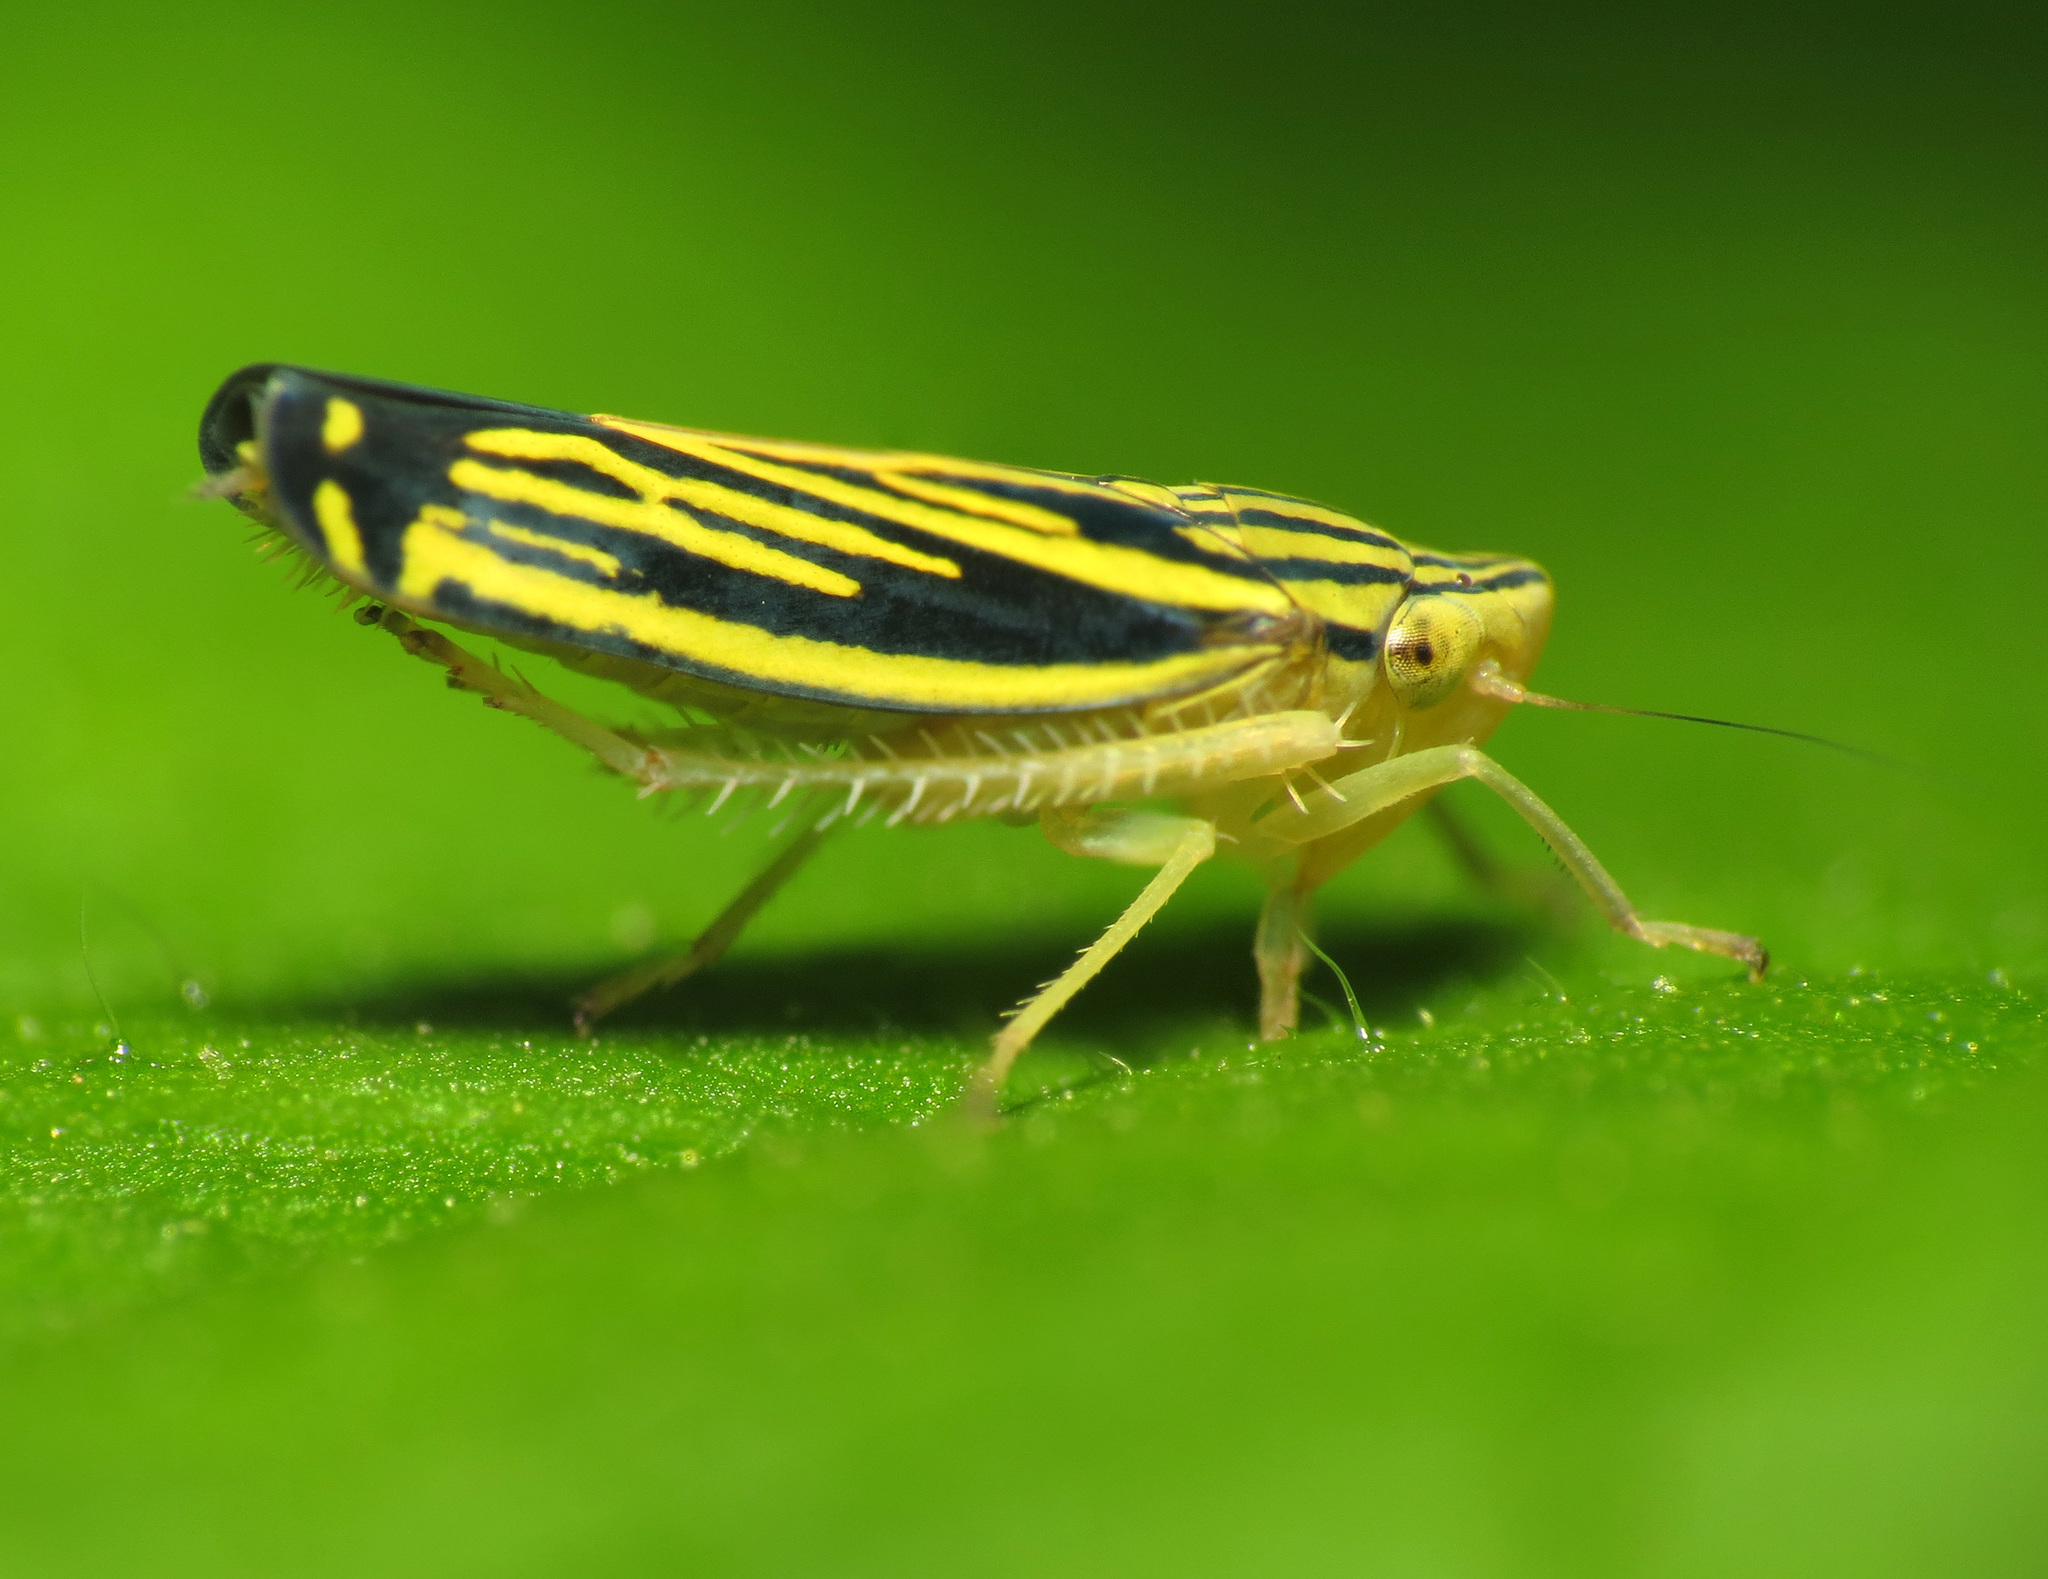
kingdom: Animalia
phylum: Arthropoda
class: Insecta
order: Hemiptera
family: Cicadellidae
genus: Sibovia
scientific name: Sibovia occatoria
